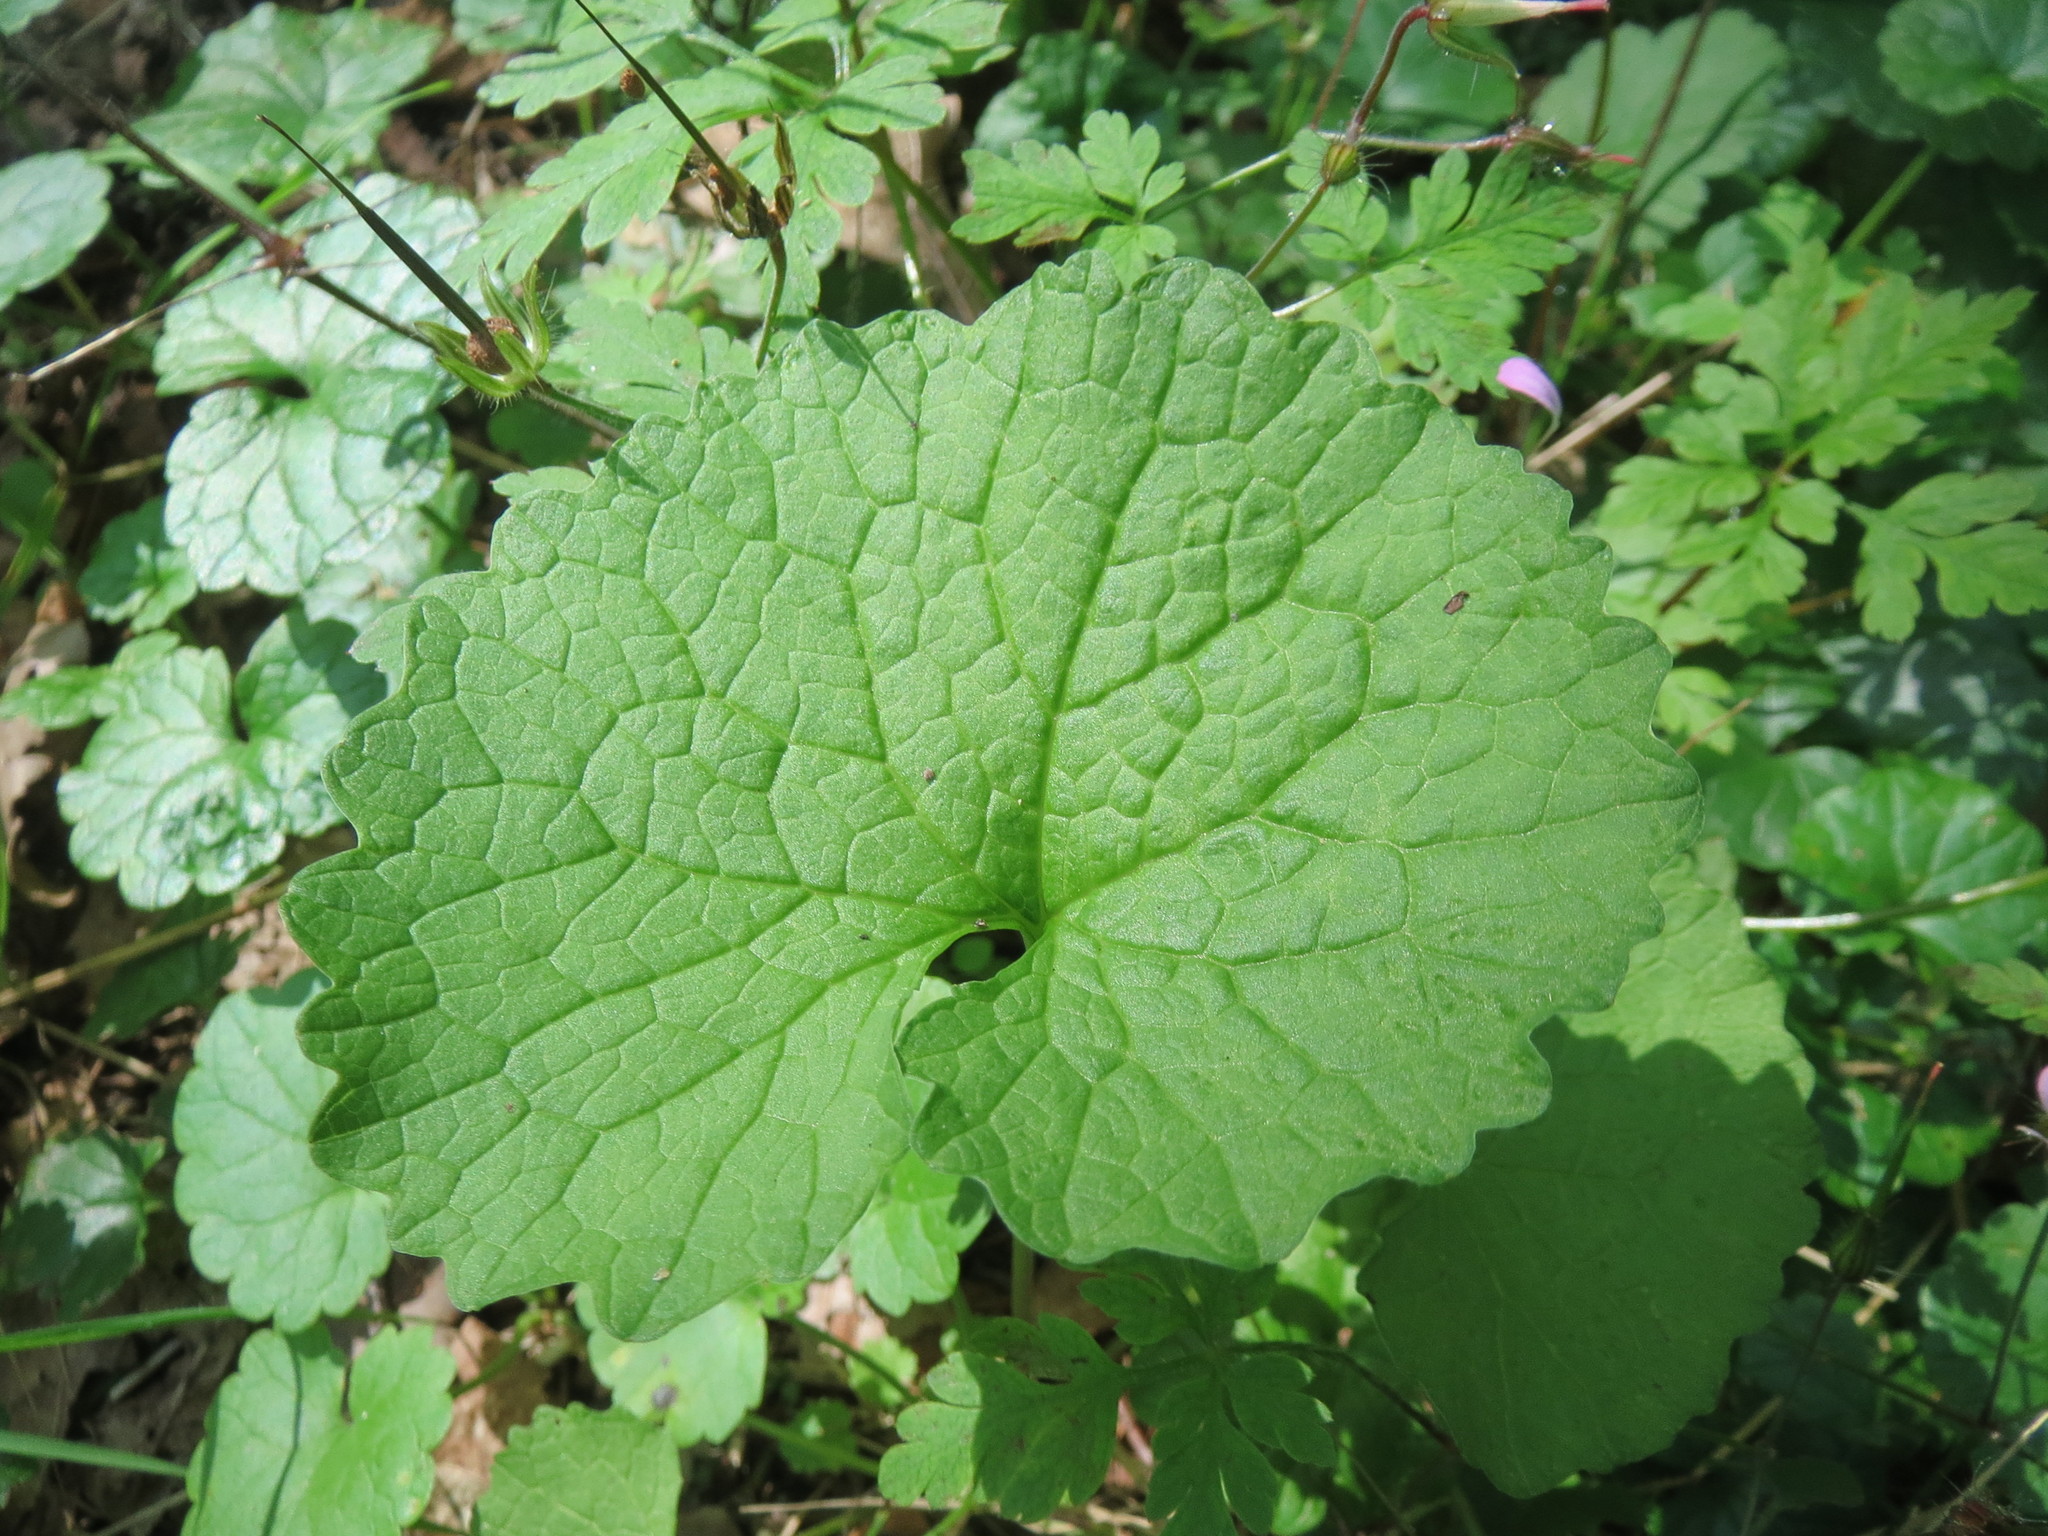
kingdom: Plantae
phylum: Tracheophyta
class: Magnoliopsida
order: Brassicales
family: Brassicaceae
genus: Alliaria
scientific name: Alliaria petiolata
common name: Garlic mustard
